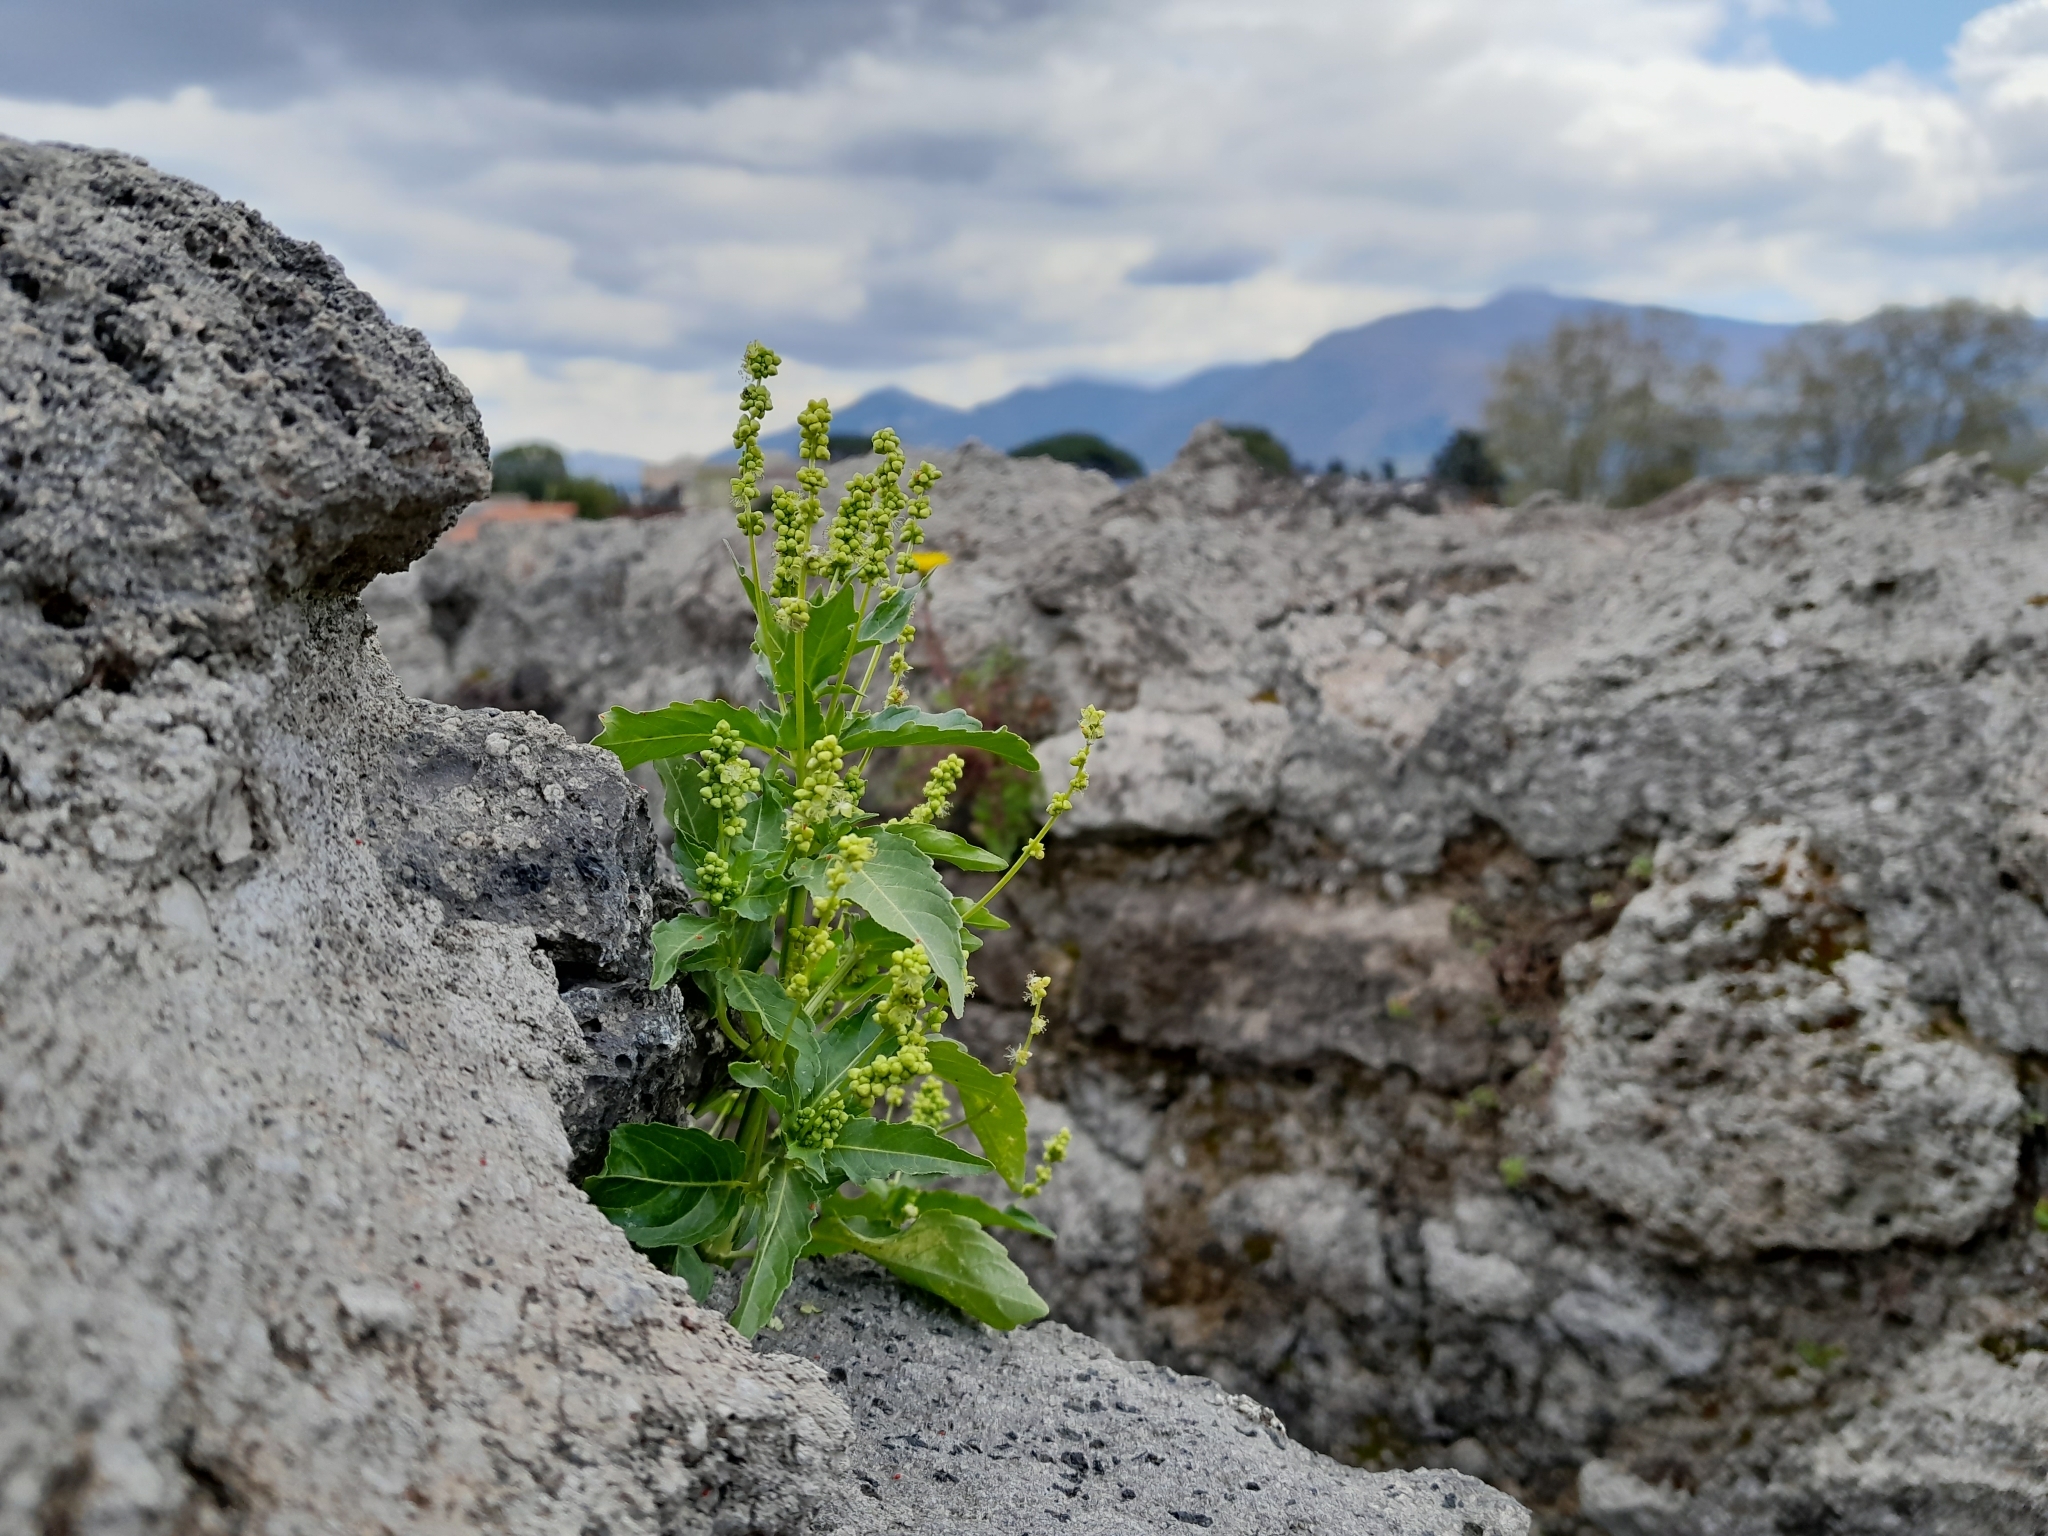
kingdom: Plantae
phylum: Tracheophyta
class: Magnoliopsida
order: Malpighiales
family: Euphorbiaceae
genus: Mercurialis
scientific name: Mercurialis annua
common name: Annual mercury
